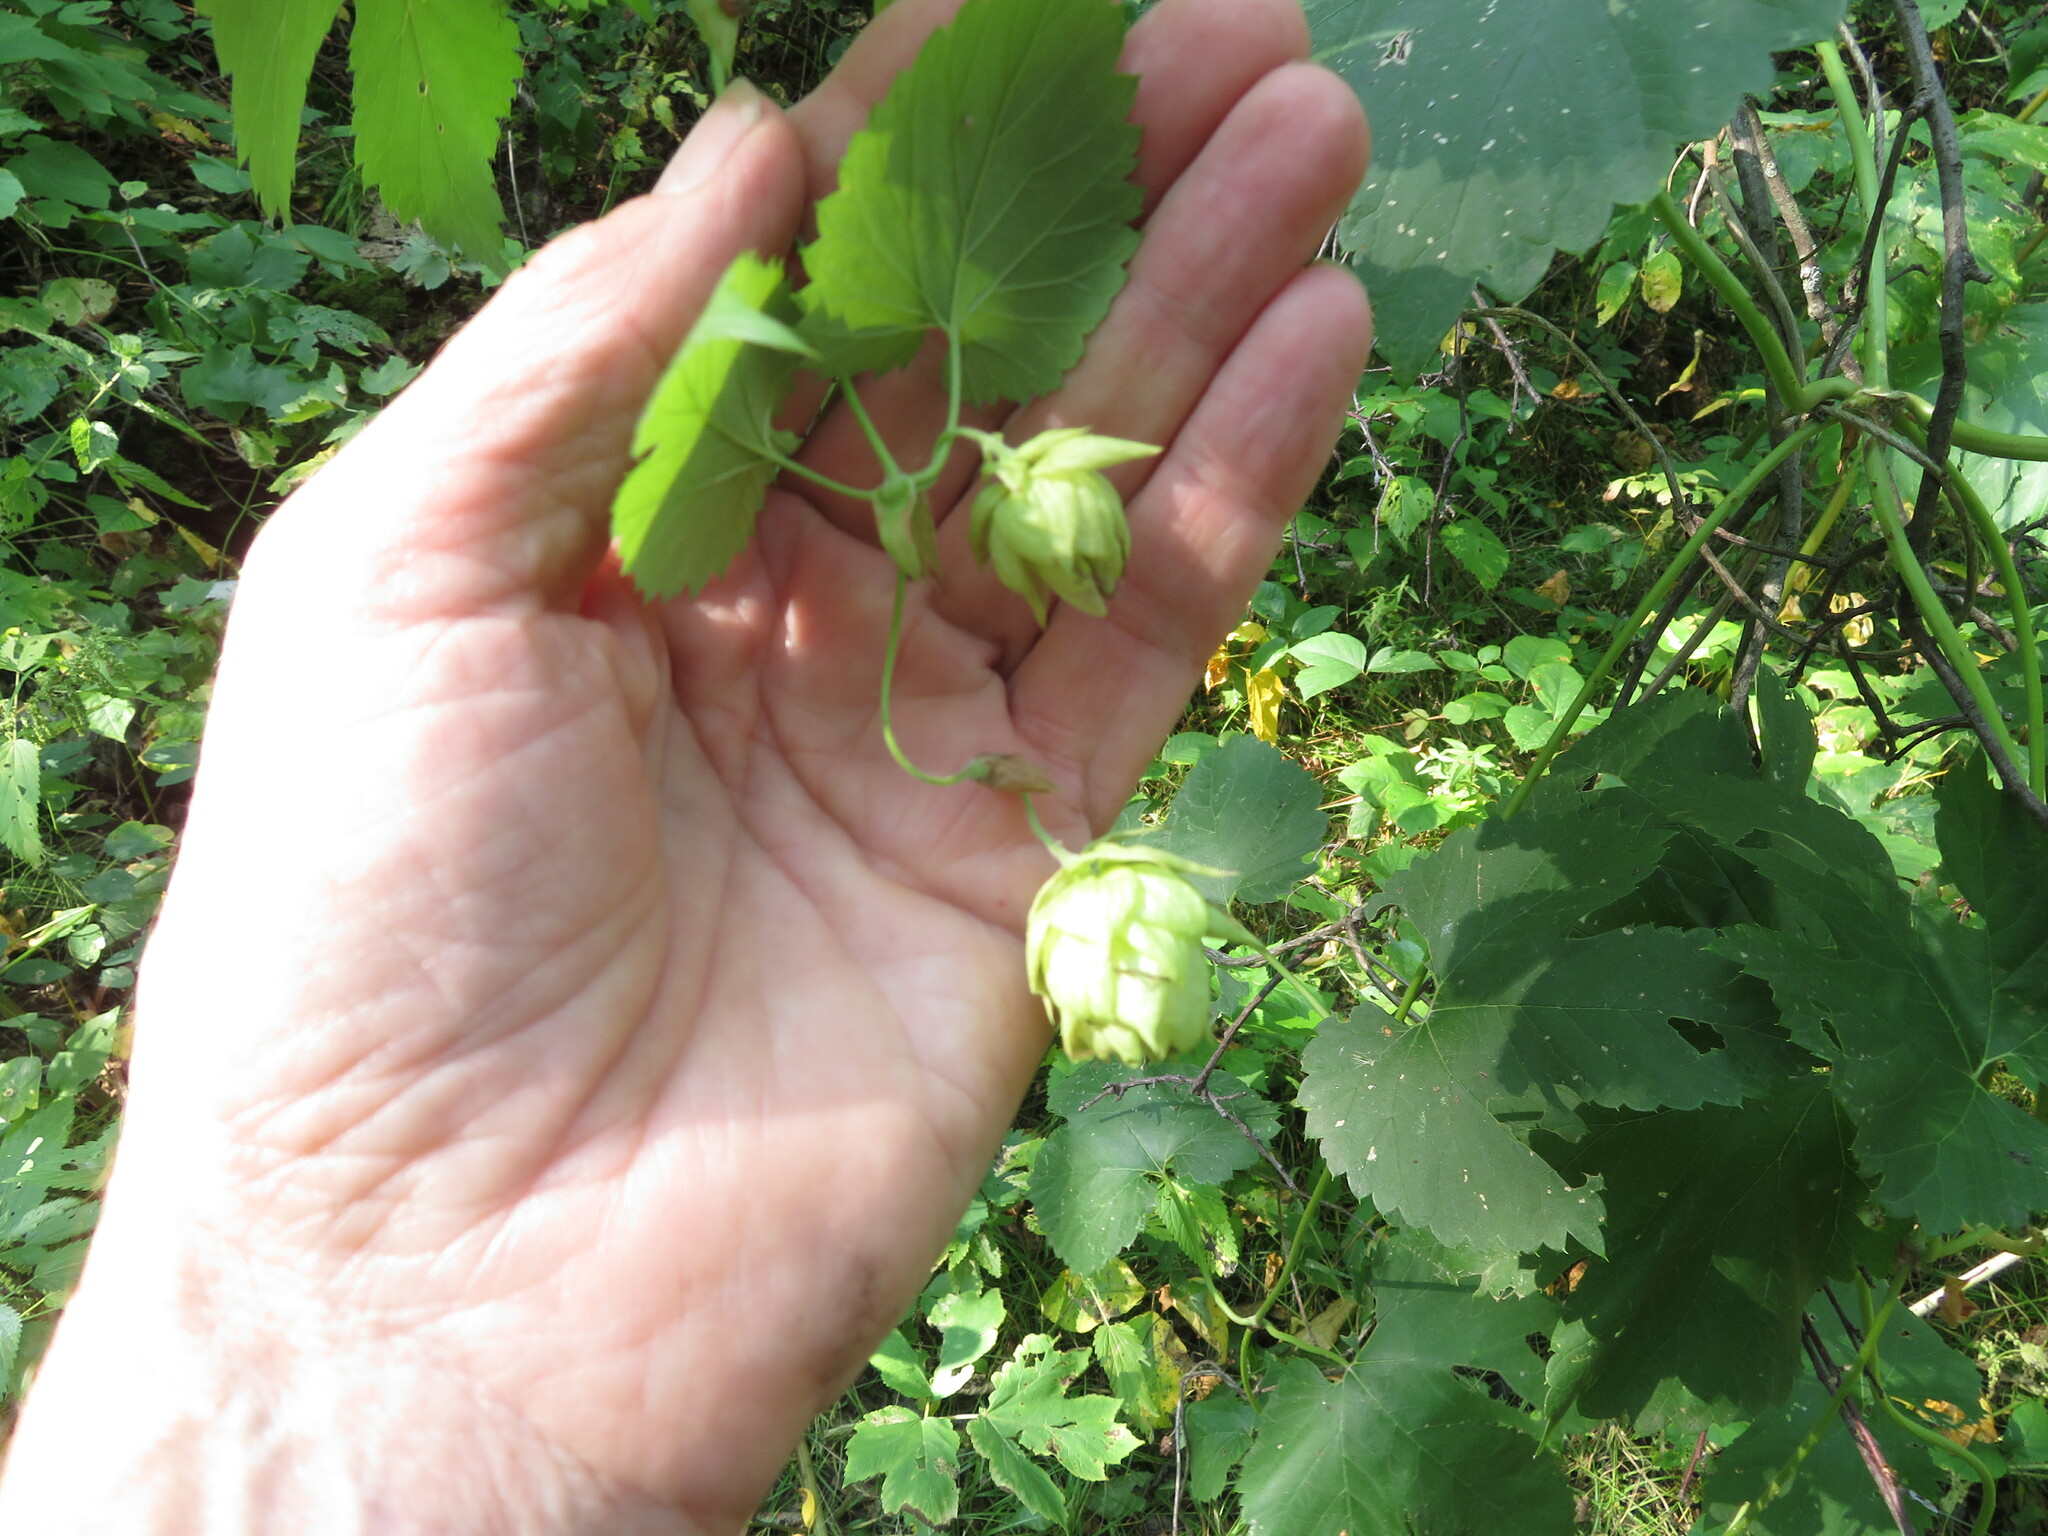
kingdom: Plantae
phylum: Tracheophyta
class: Magnoliopsida
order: Rosales
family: Cannabaceae
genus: Humulus
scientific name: Humulus lupulus
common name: Hop
